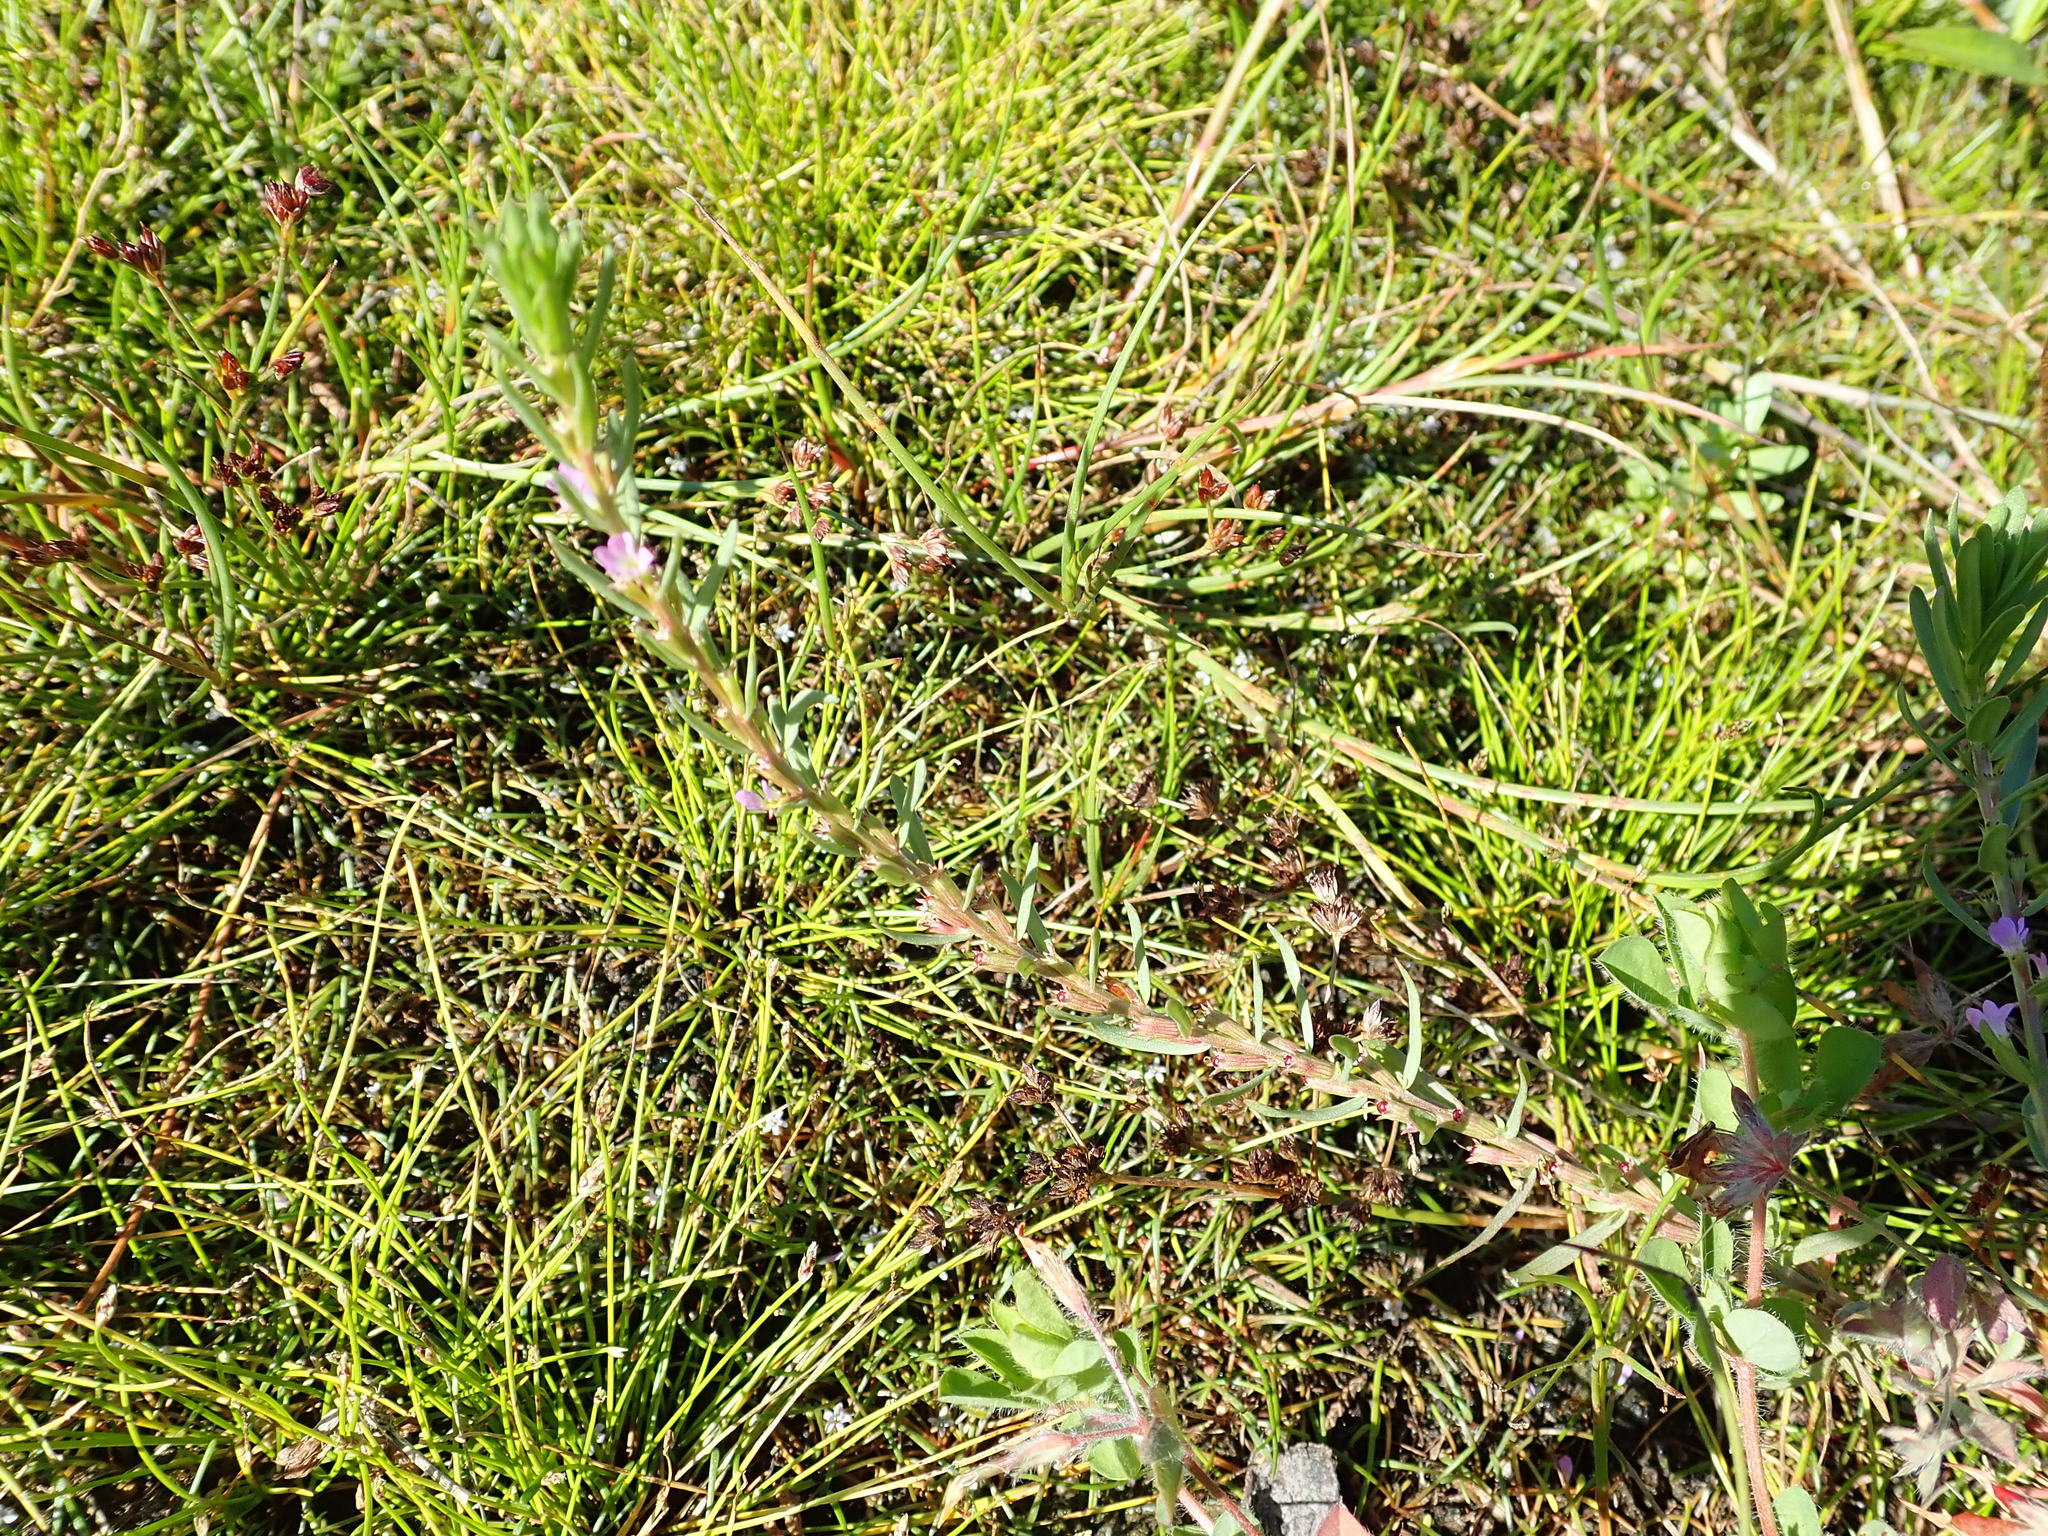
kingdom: Plantae
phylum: Tracheophyta
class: Magnoliopsida
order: Myrtales
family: Lythraceae
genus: Lythrum
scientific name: Lythrum hyssopifolia
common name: Grass-poly
